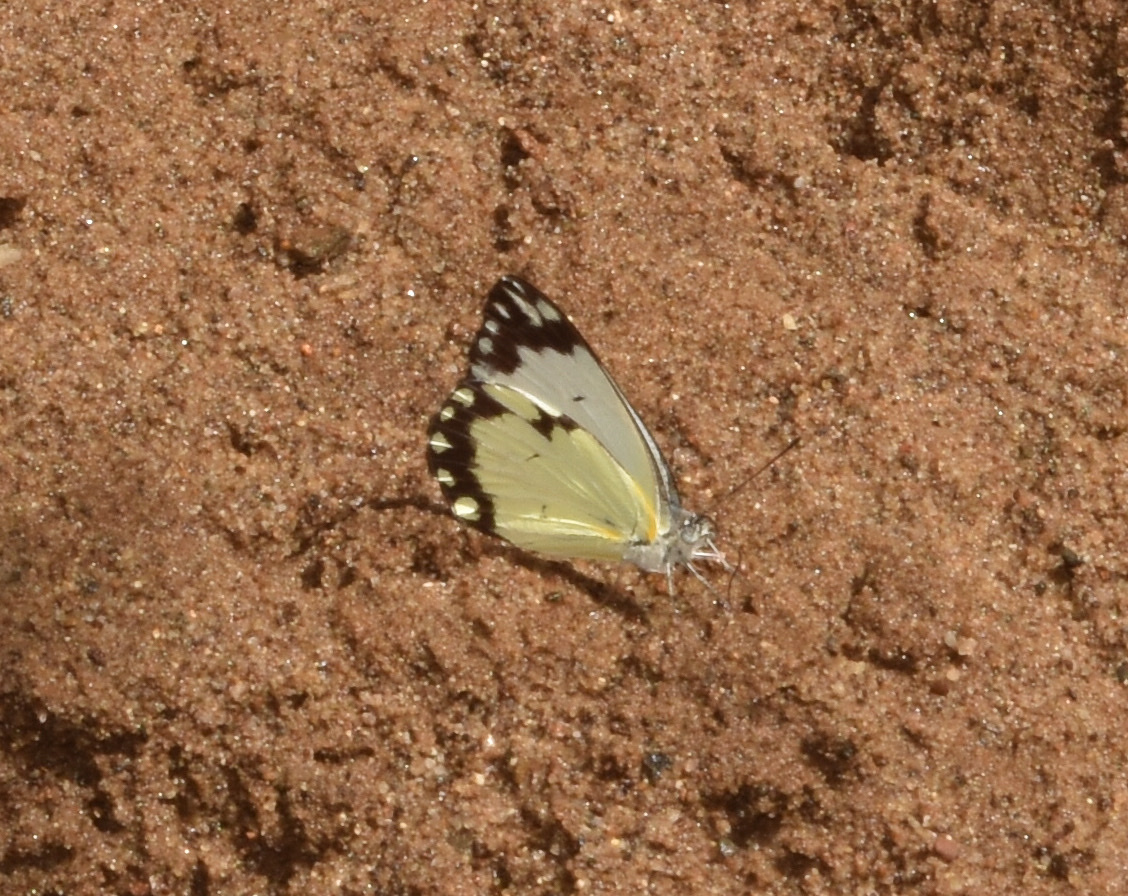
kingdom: Animalia
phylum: Arthropoda
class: Insecta
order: Lepidoptera
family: Pieridae
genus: Belenois
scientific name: Belenois creona
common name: African caper white
